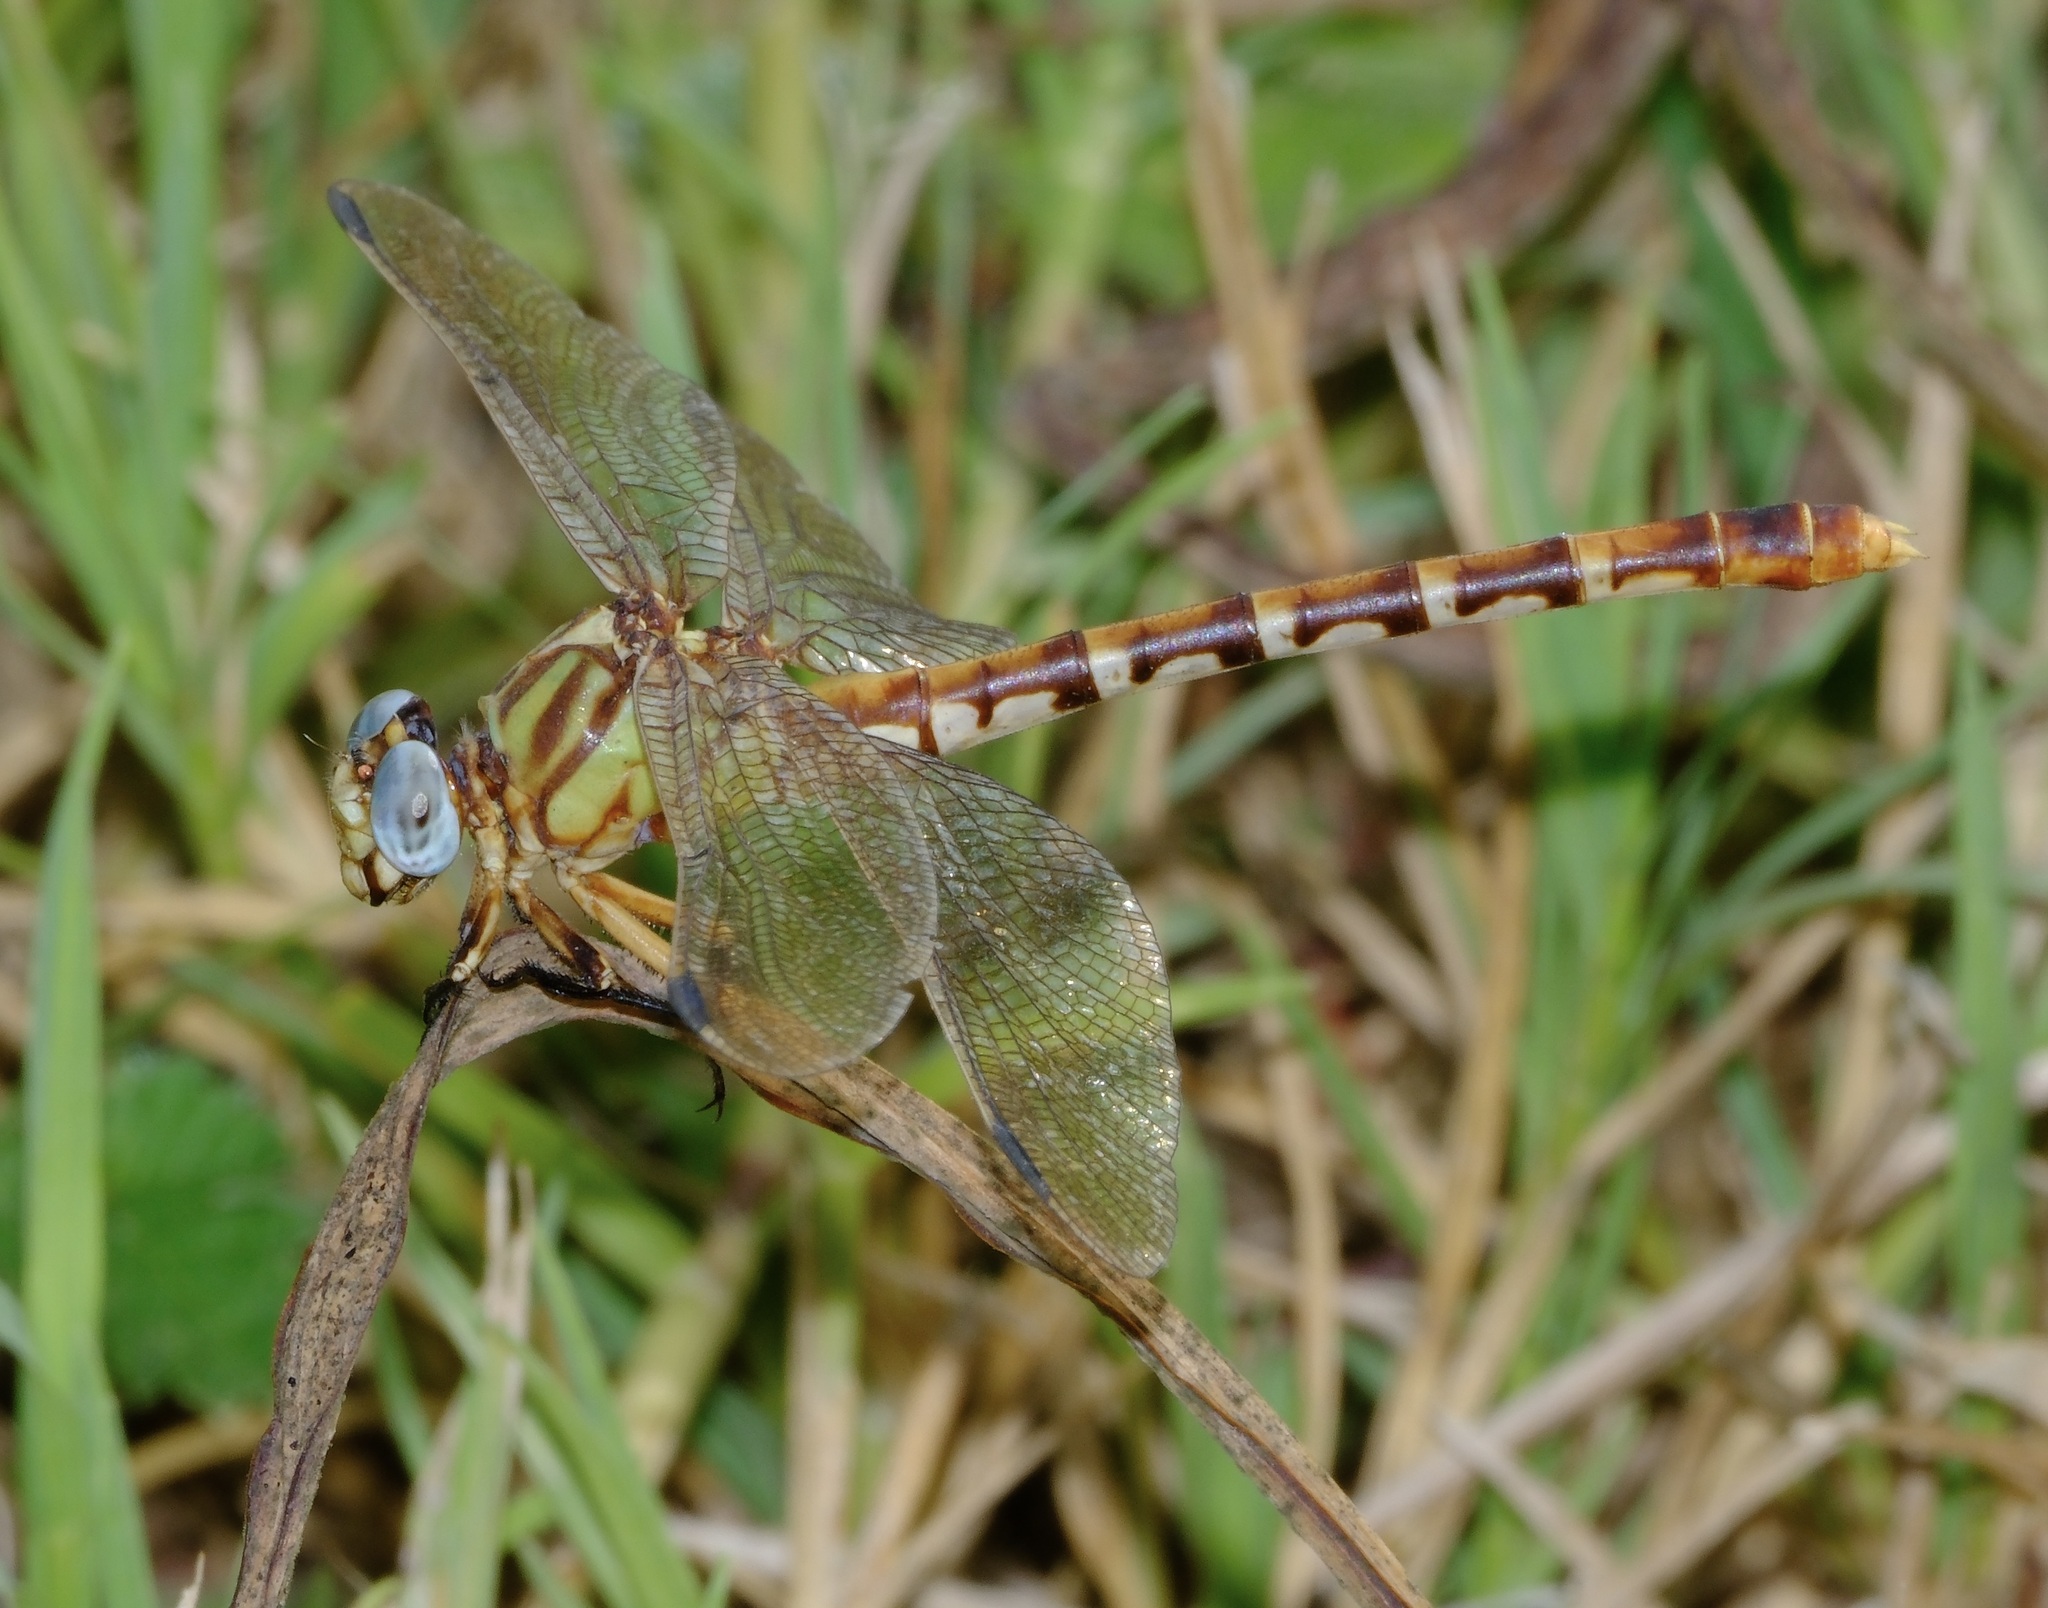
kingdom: Animalia
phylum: Arthropoda
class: Insecta
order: Odonata
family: Gomphidae
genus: Erpetogomphus
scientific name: Erpetogomphus designatus
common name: Eastern ringtail
